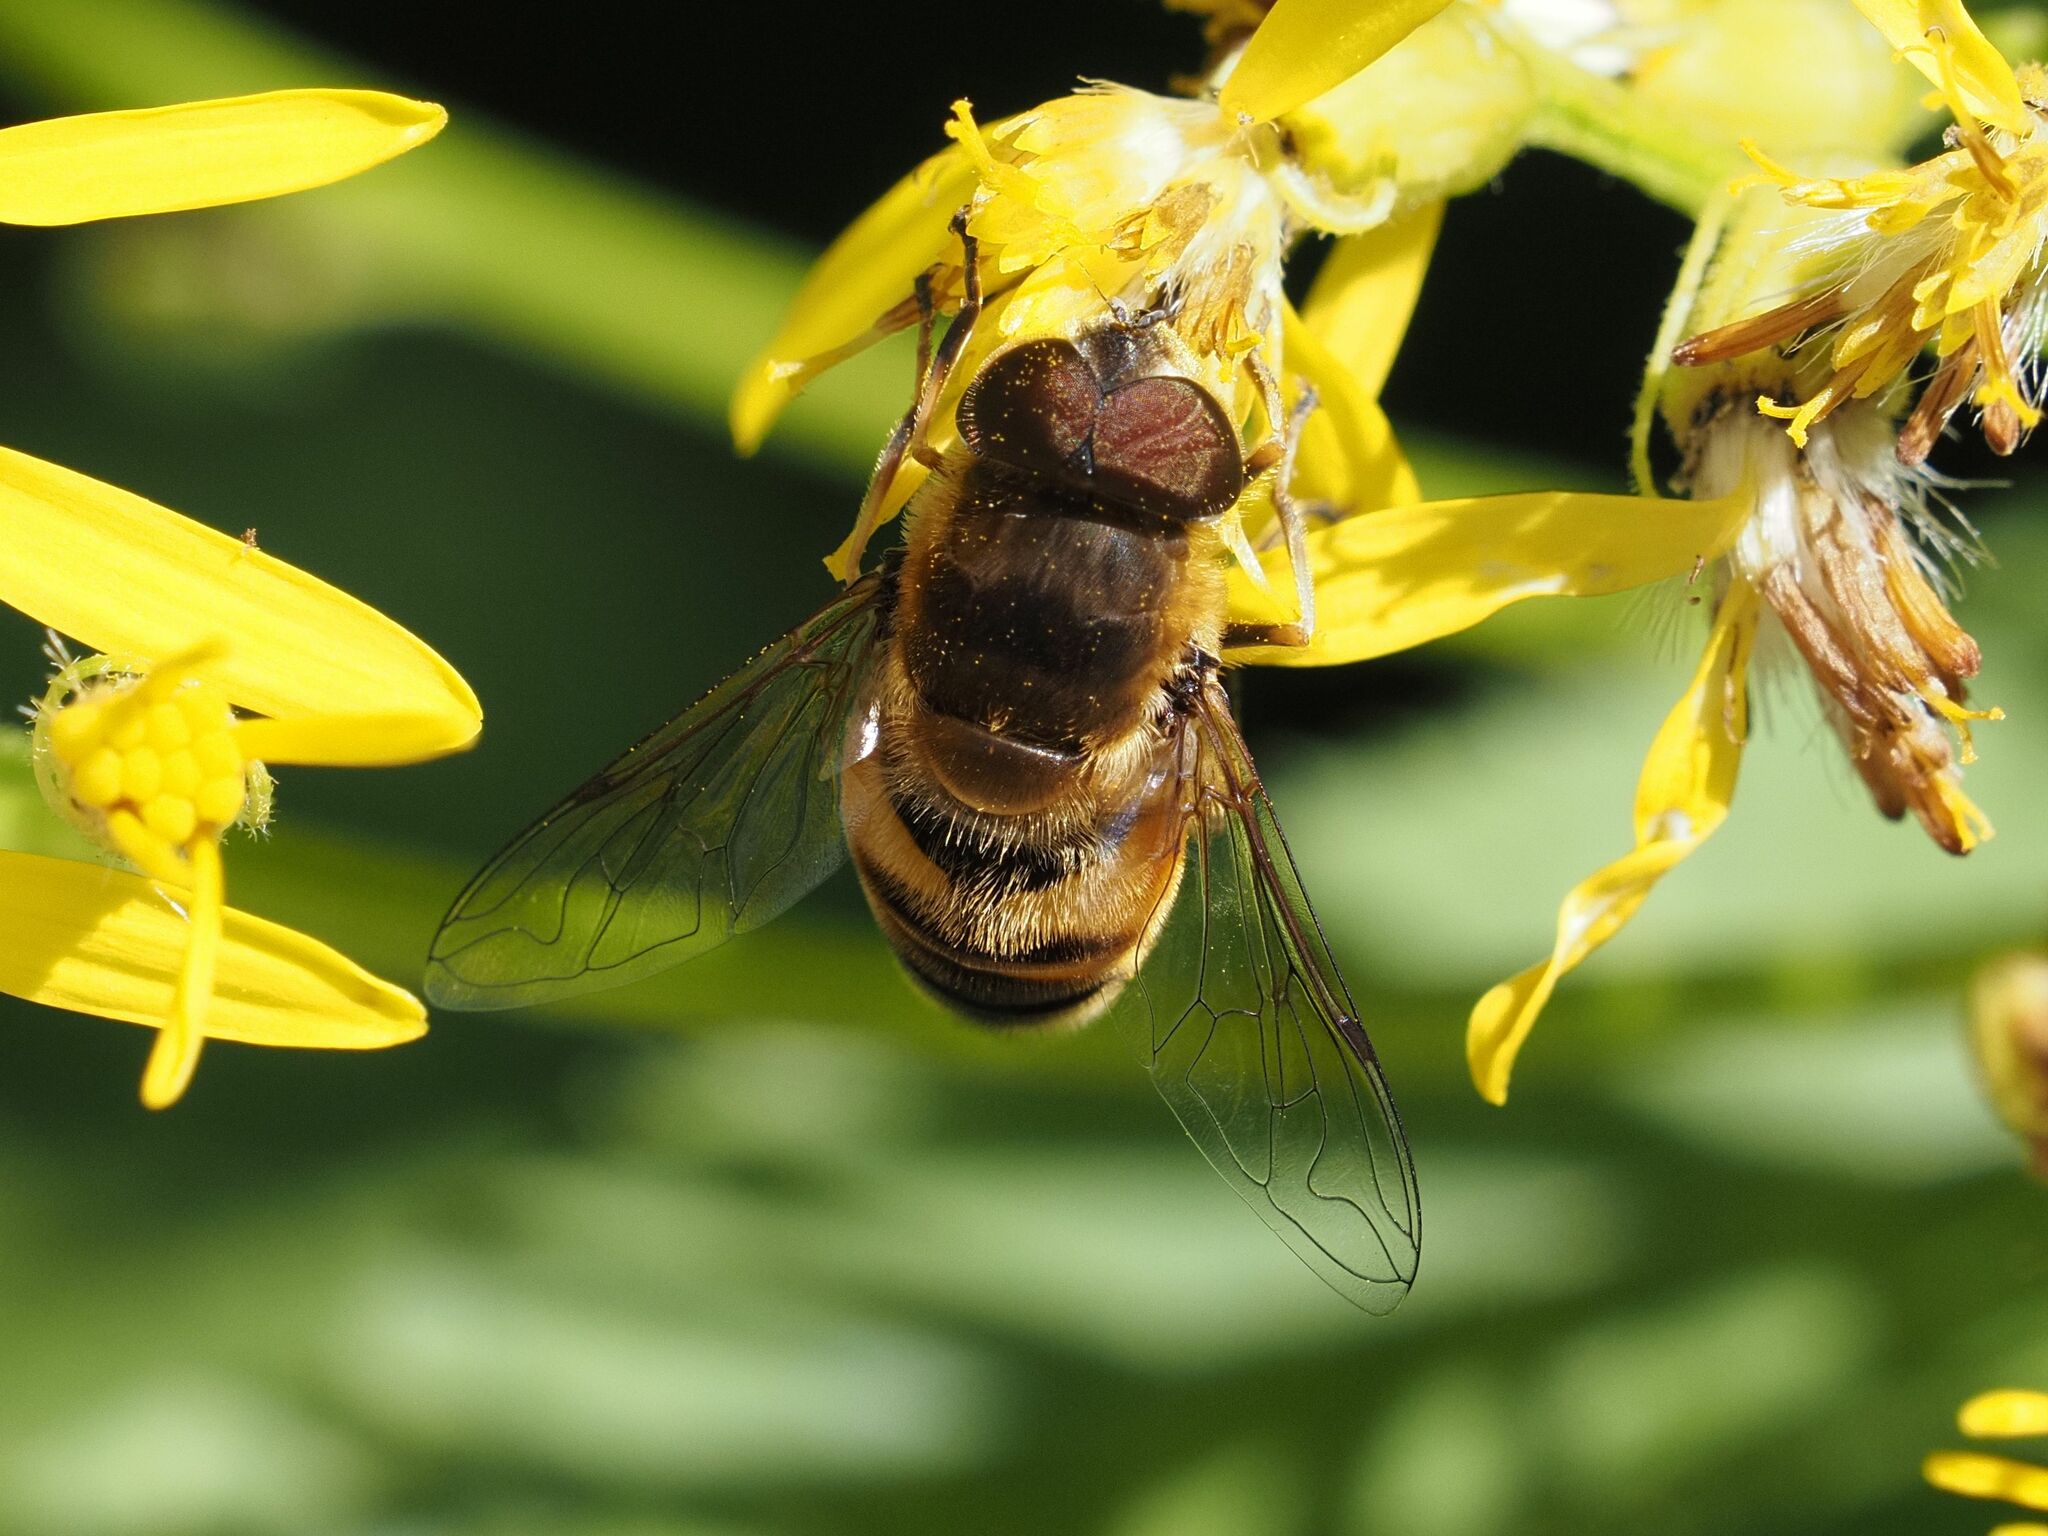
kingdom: Animalia
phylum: Arthropoda
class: Insecta
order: Diptera
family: Syrphidae
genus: Eristalis
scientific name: Eristalis pertinax
